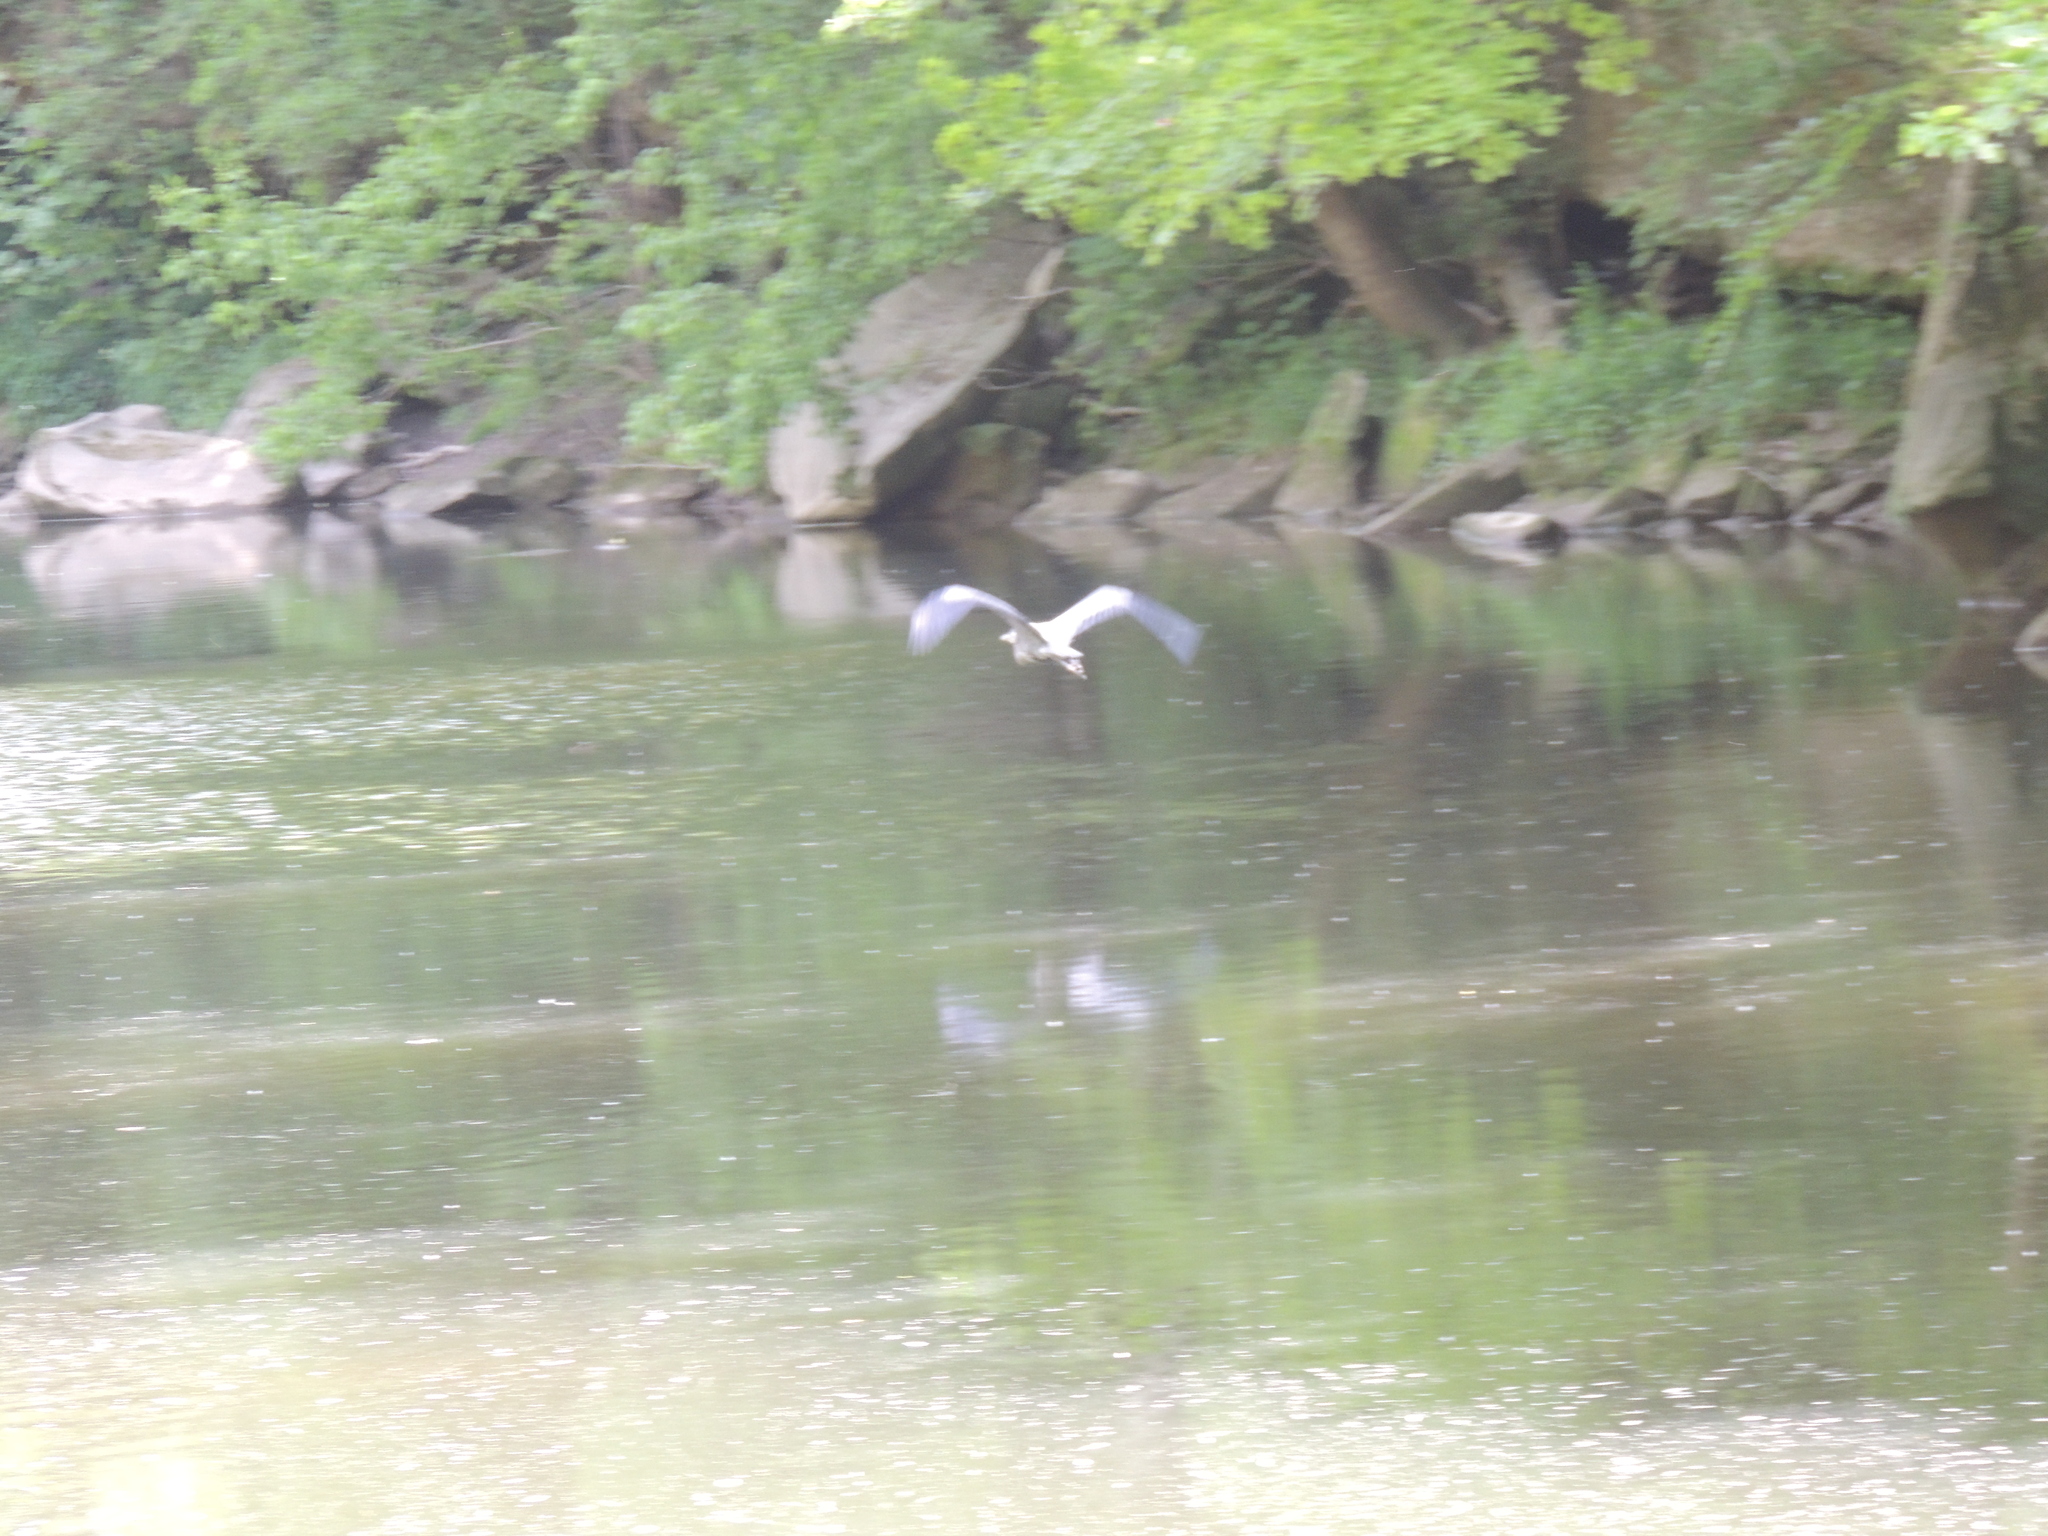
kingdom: Animalia
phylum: Chordata
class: Aves
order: Pelecaniformes
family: Ardeidae
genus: Ardea
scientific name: Ardea herodias
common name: Great blue heron
